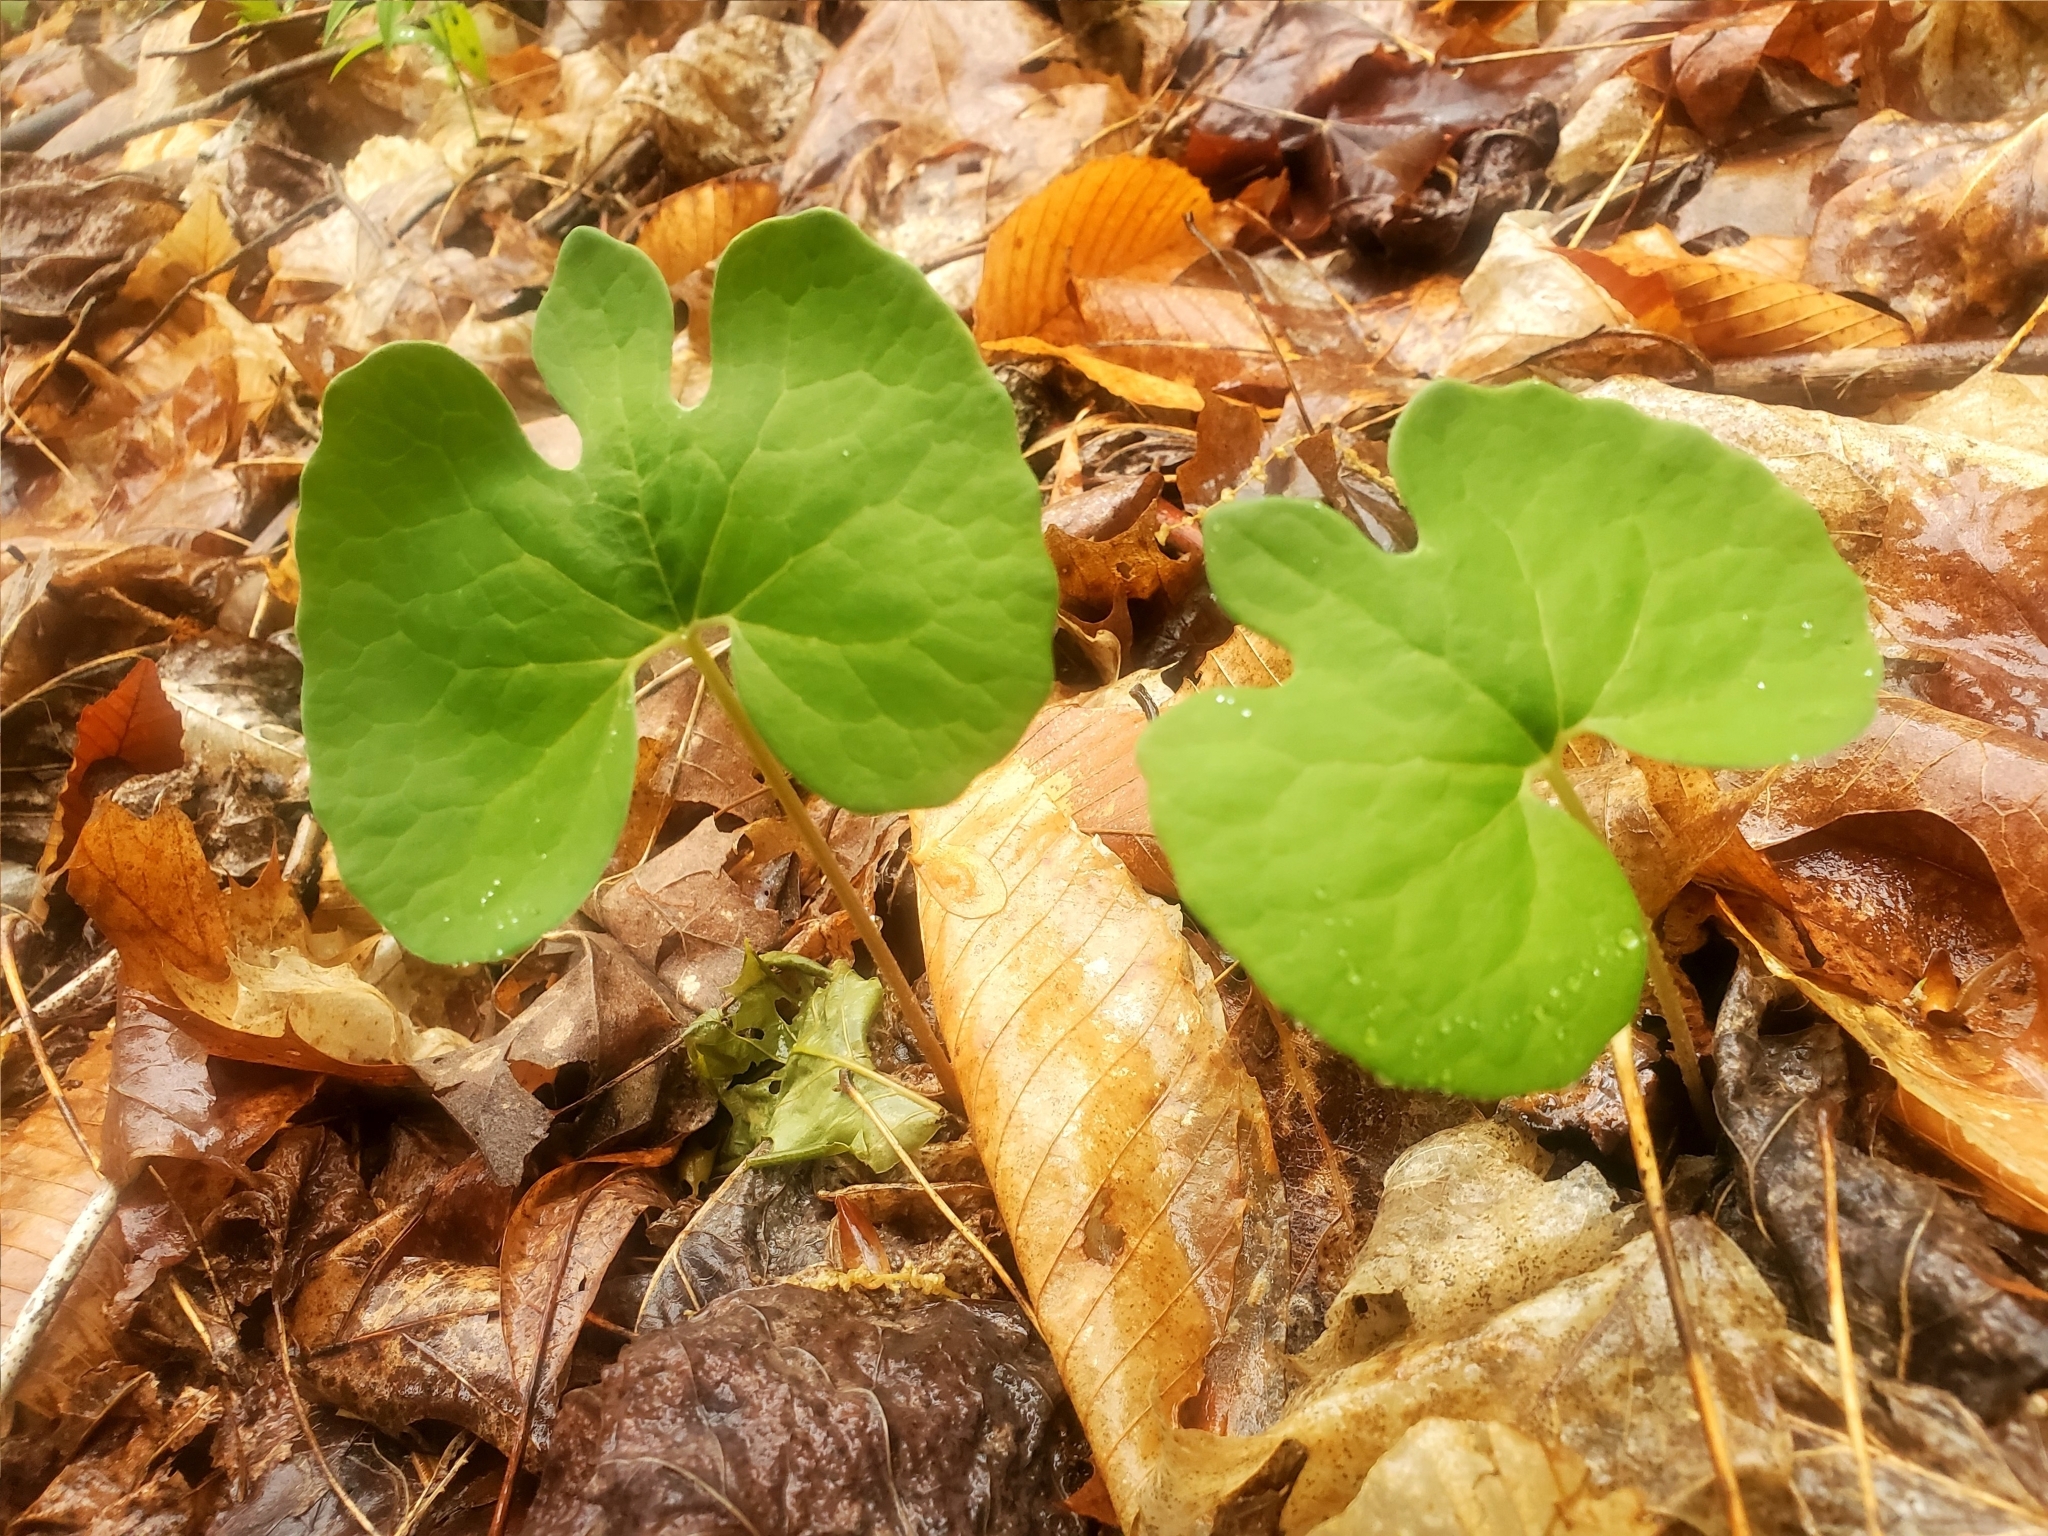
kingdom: Plantae
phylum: Tracheophyta
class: Magnoliopsida
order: Ranunculales
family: Papaveraceae
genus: Sanguinaria
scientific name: Sanguinaria canadensis
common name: Bloodroot
